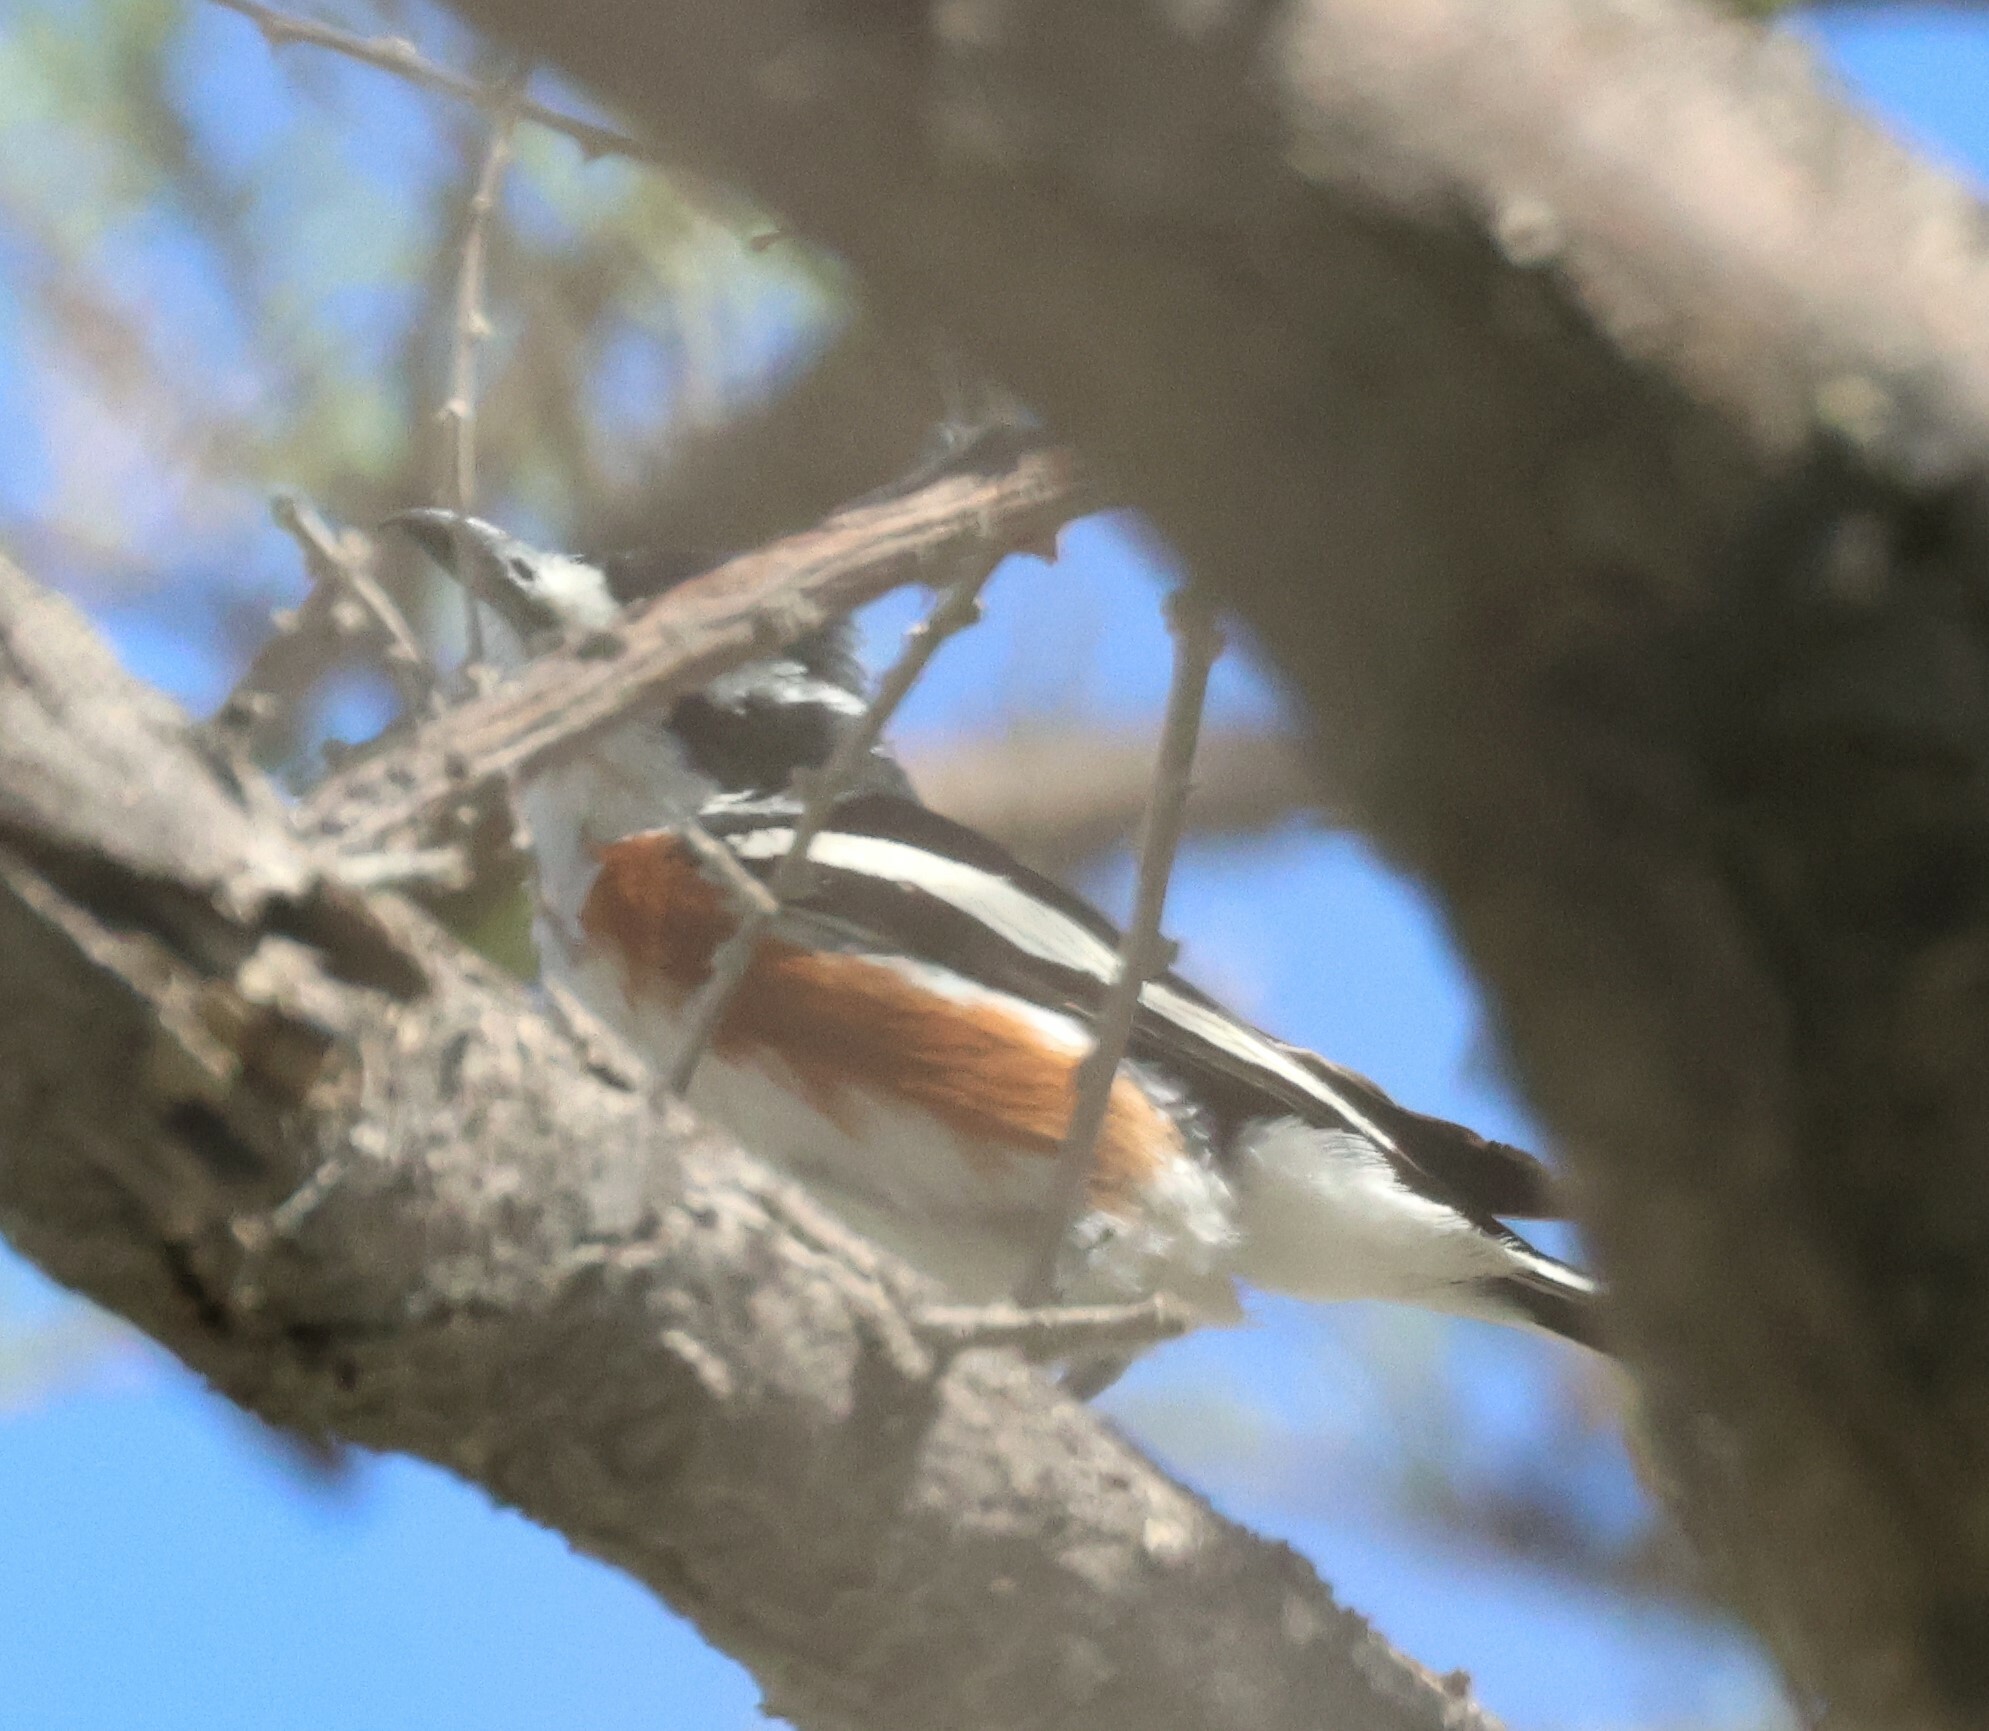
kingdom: Animalia
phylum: Chordata
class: Aves
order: Passeriformes
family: Malaconotidae
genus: Nilaus
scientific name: Nilaus afer
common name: Brubru
